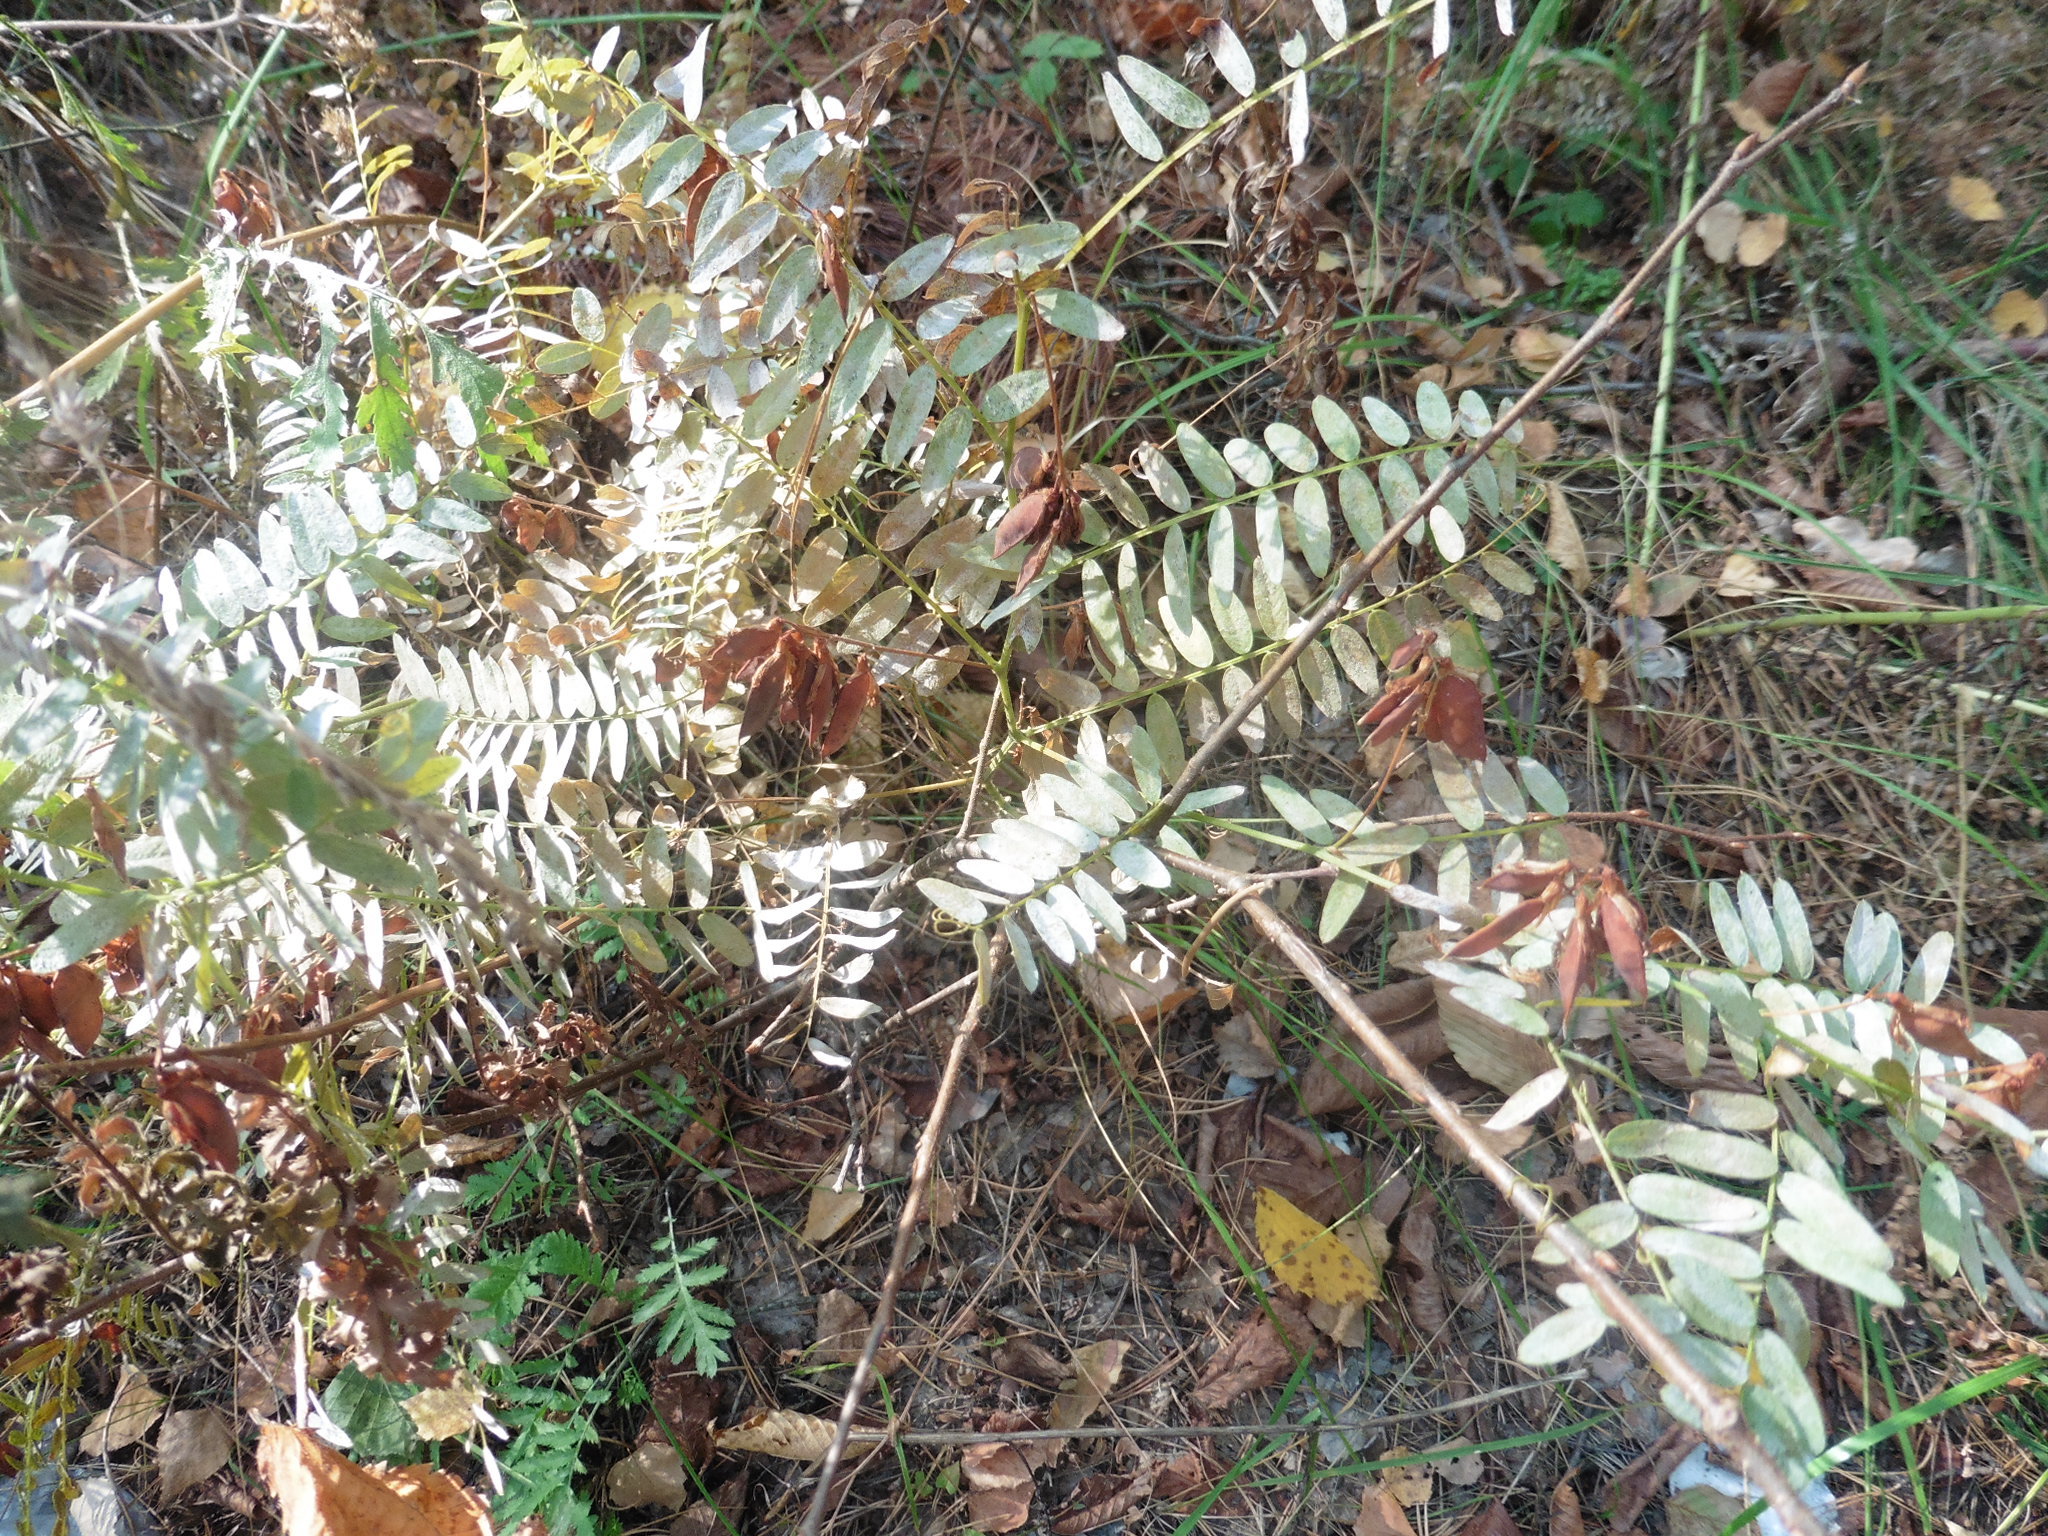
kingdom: Plantae
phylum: Tracheophyta
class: Magnoliopsida
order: Fabales
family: Fabaceae
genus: Vicia
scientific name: Vicia cassubica
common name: Danzig vetch
